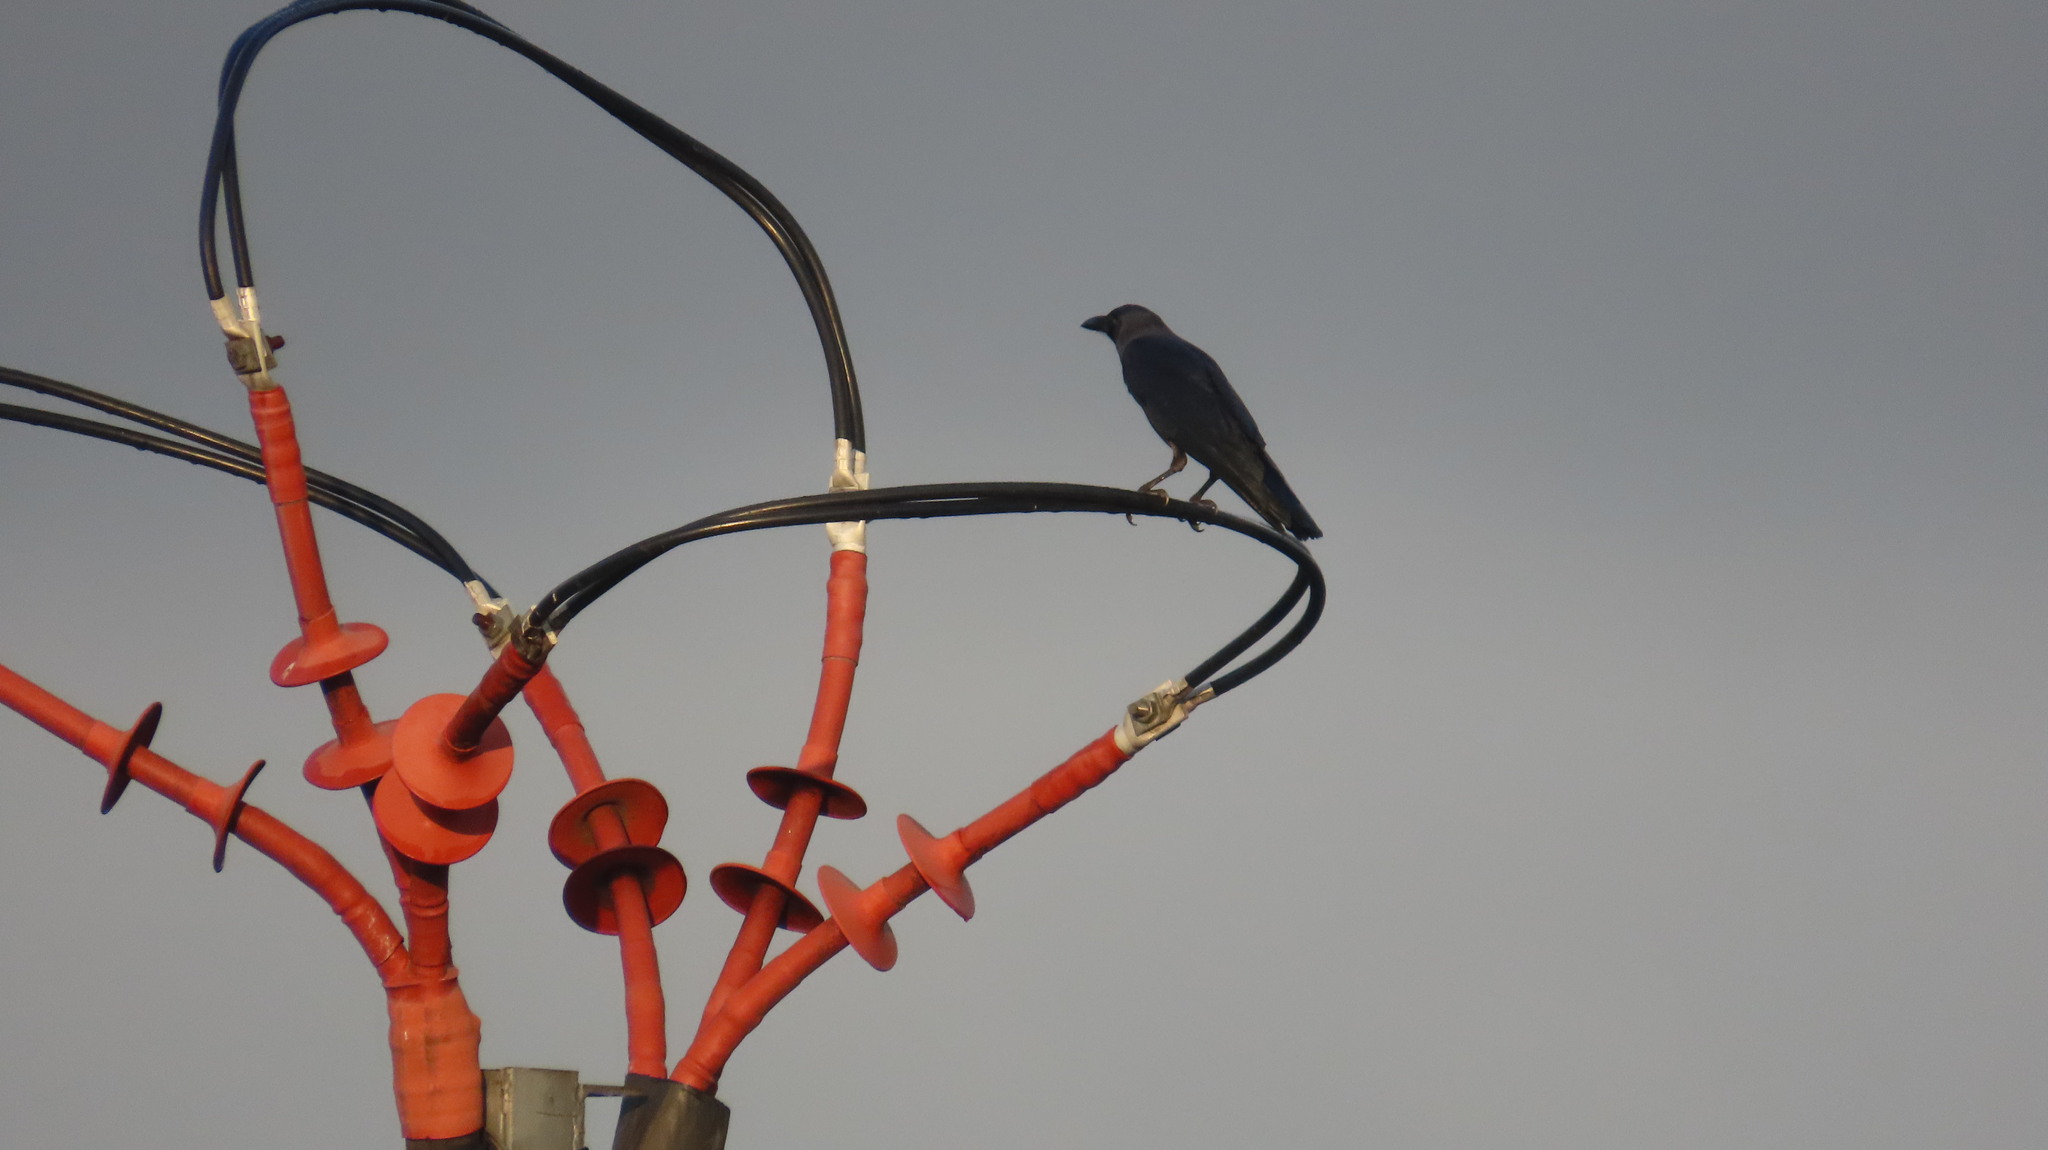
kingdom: Animalia
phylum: Chordata
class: Aves
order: Passeriformes
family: Corvidae
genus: Corvus
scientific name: Corvus splendens
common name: House crow
